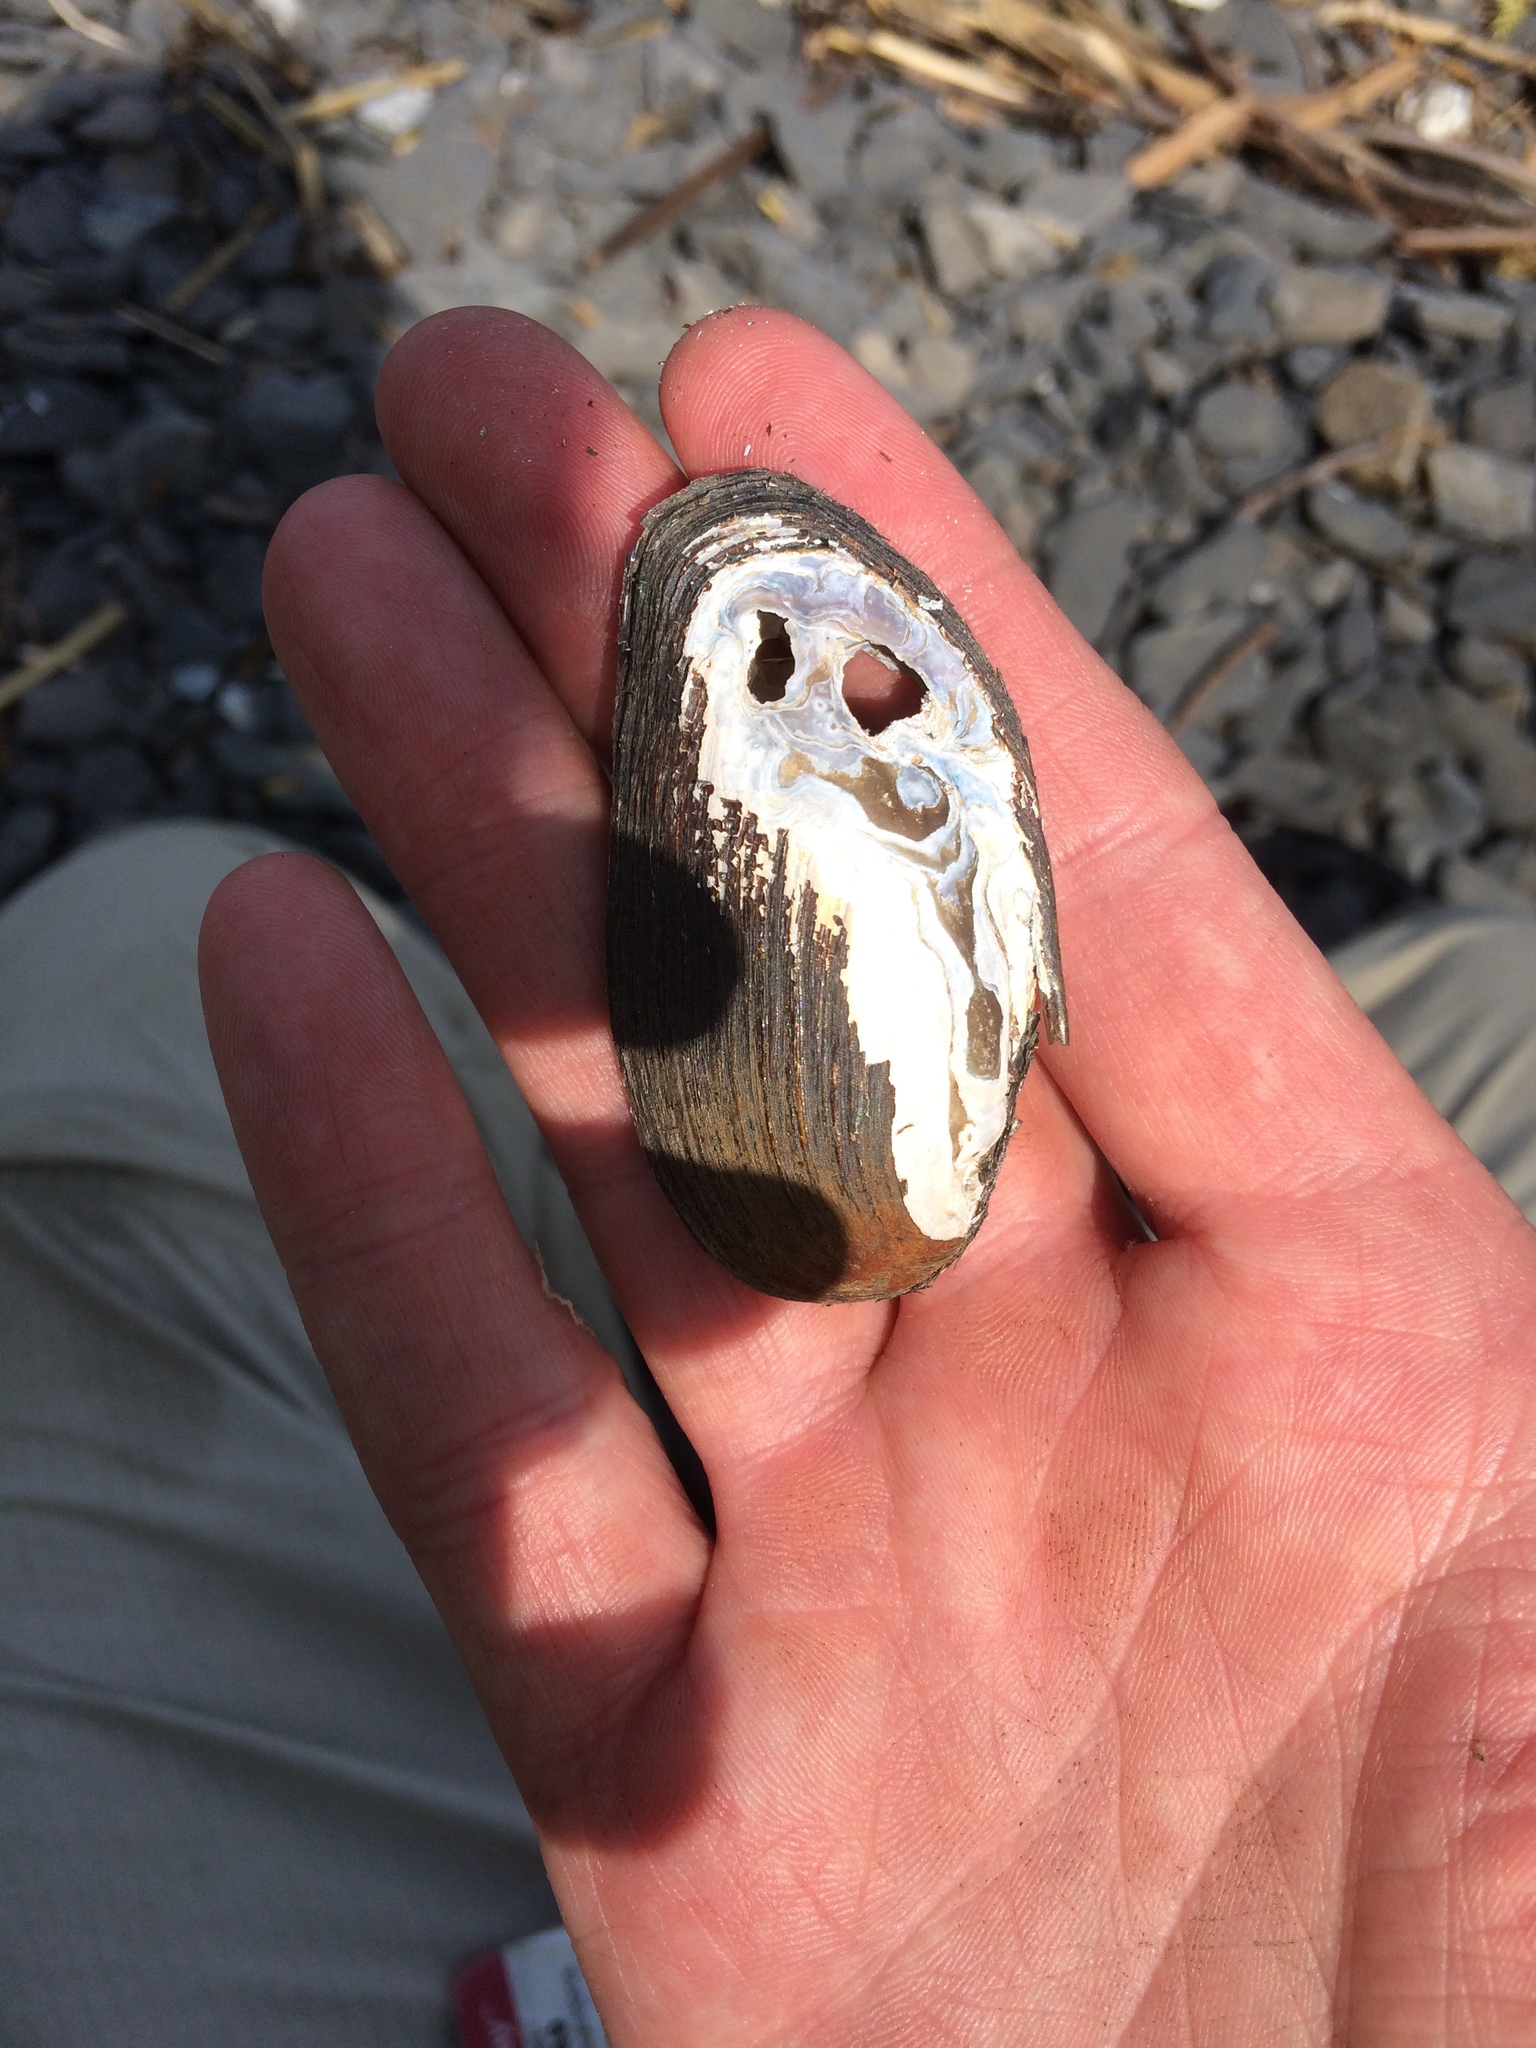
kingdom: Animalia
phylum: Mollusca
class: Bivalvia
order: Unionida
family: Unionidae
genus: Elliptio
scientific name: Elliptio complanata
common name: Eastern elliptio
